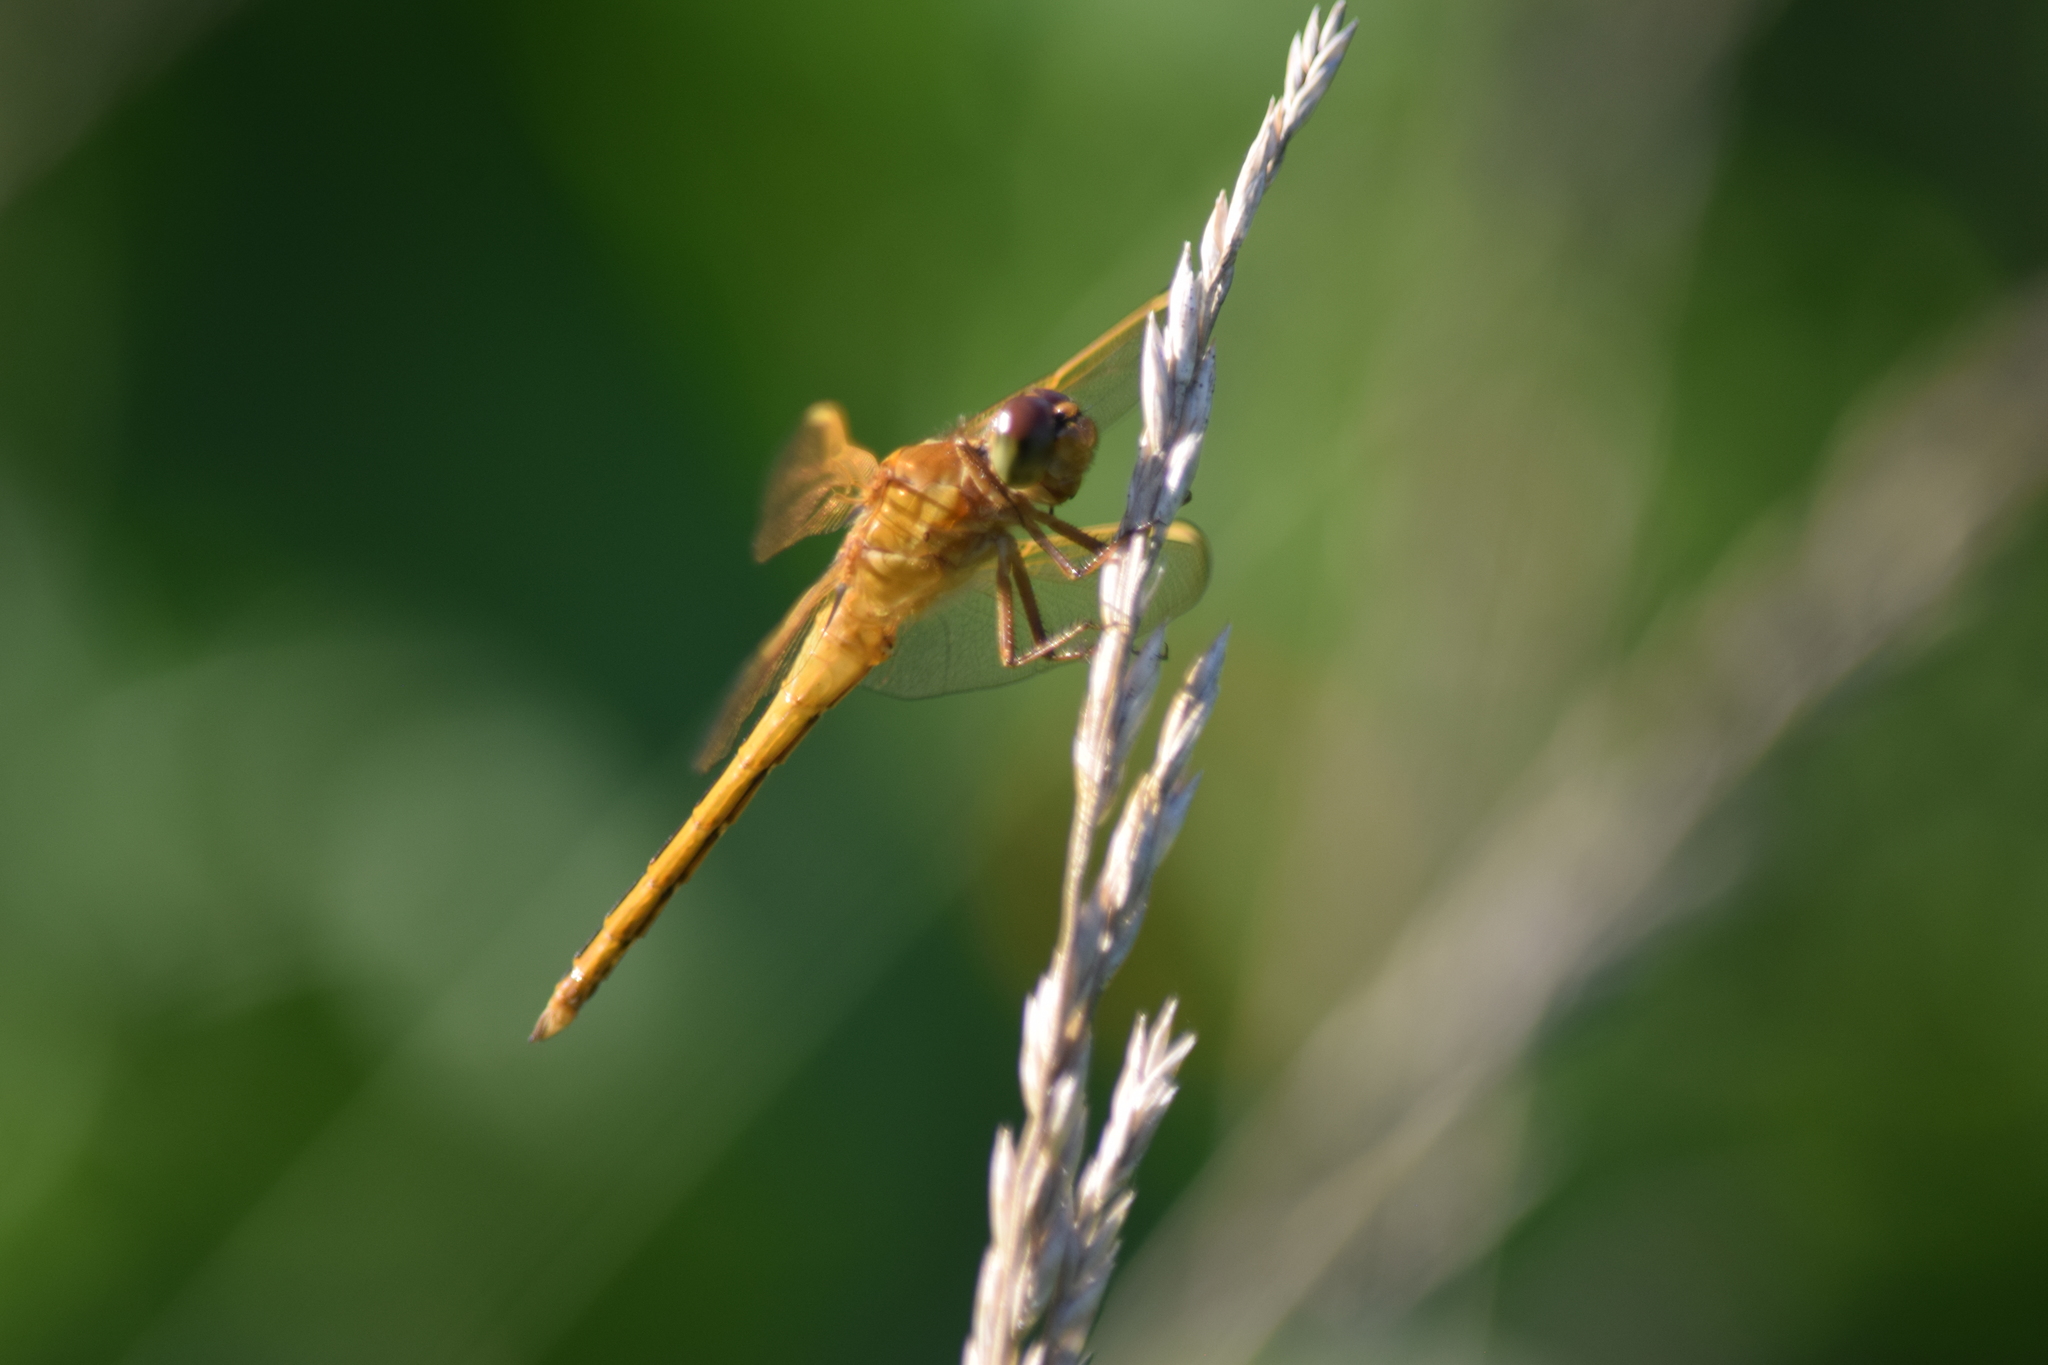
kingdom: Animalia
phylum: Arthropoda
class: Insecta
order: Odonata
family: Libellulidae
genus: Libellula
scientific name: Libellula needhami
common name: Needham's skimmer
